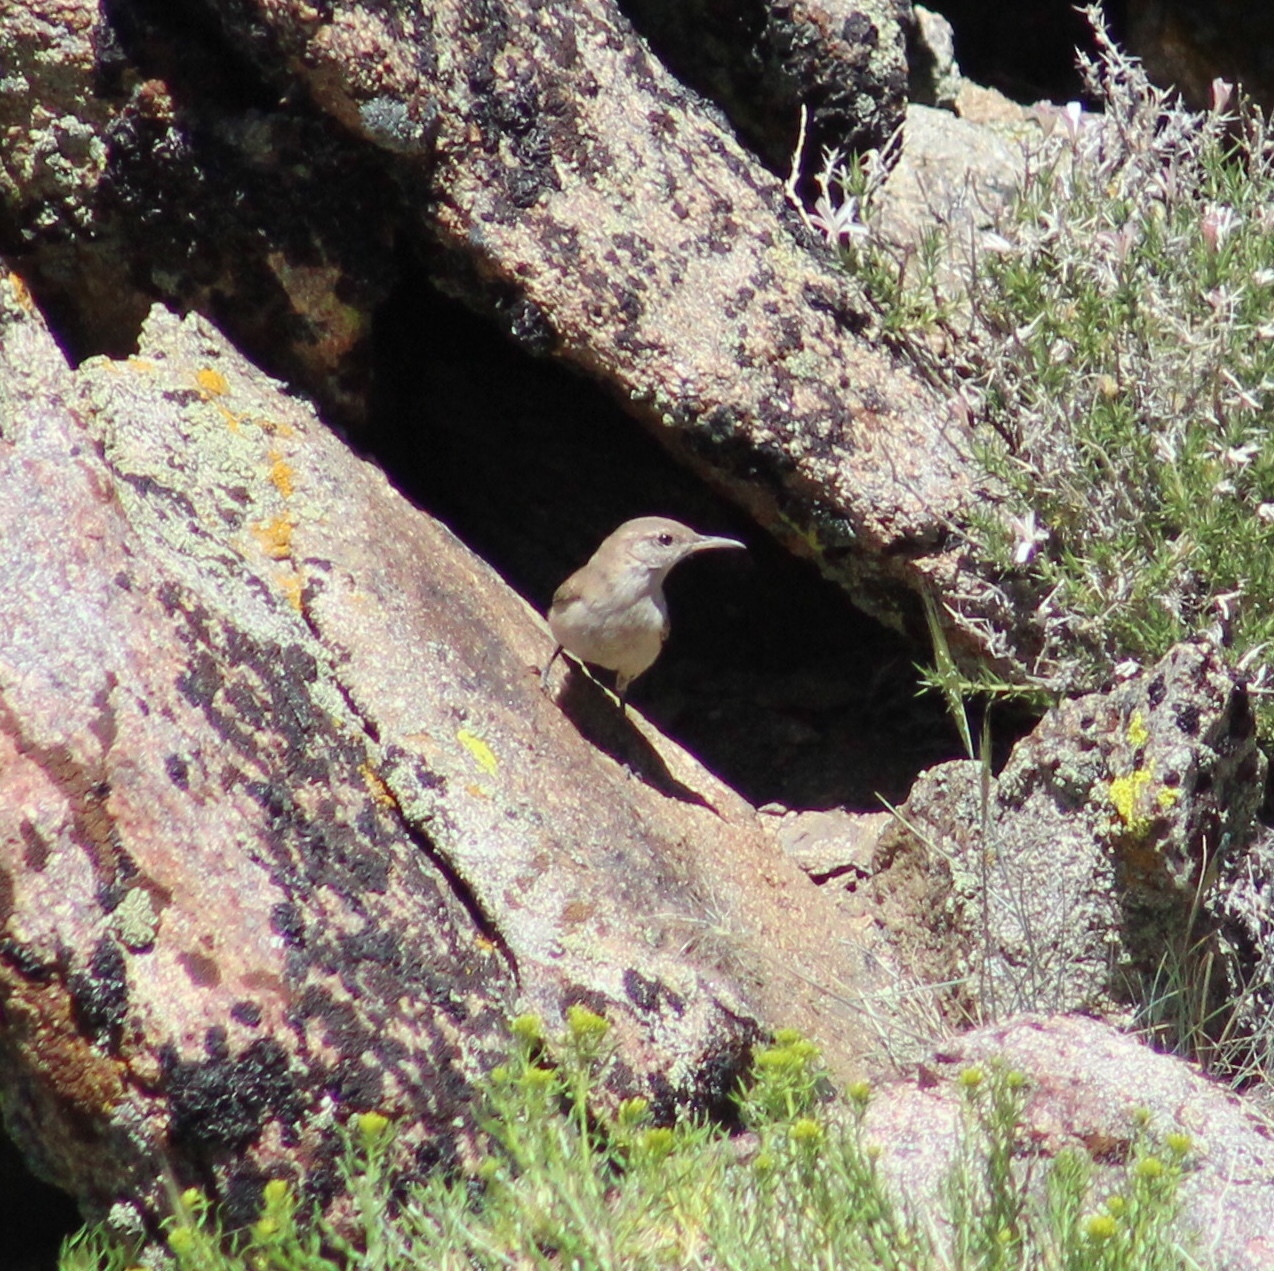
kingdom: Animalia
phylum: Chordata
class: Aves
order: Passeriformes
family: Troglodytidae
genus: Salpinctes
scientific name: Salpinctes obsoletus
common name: Rock wren
